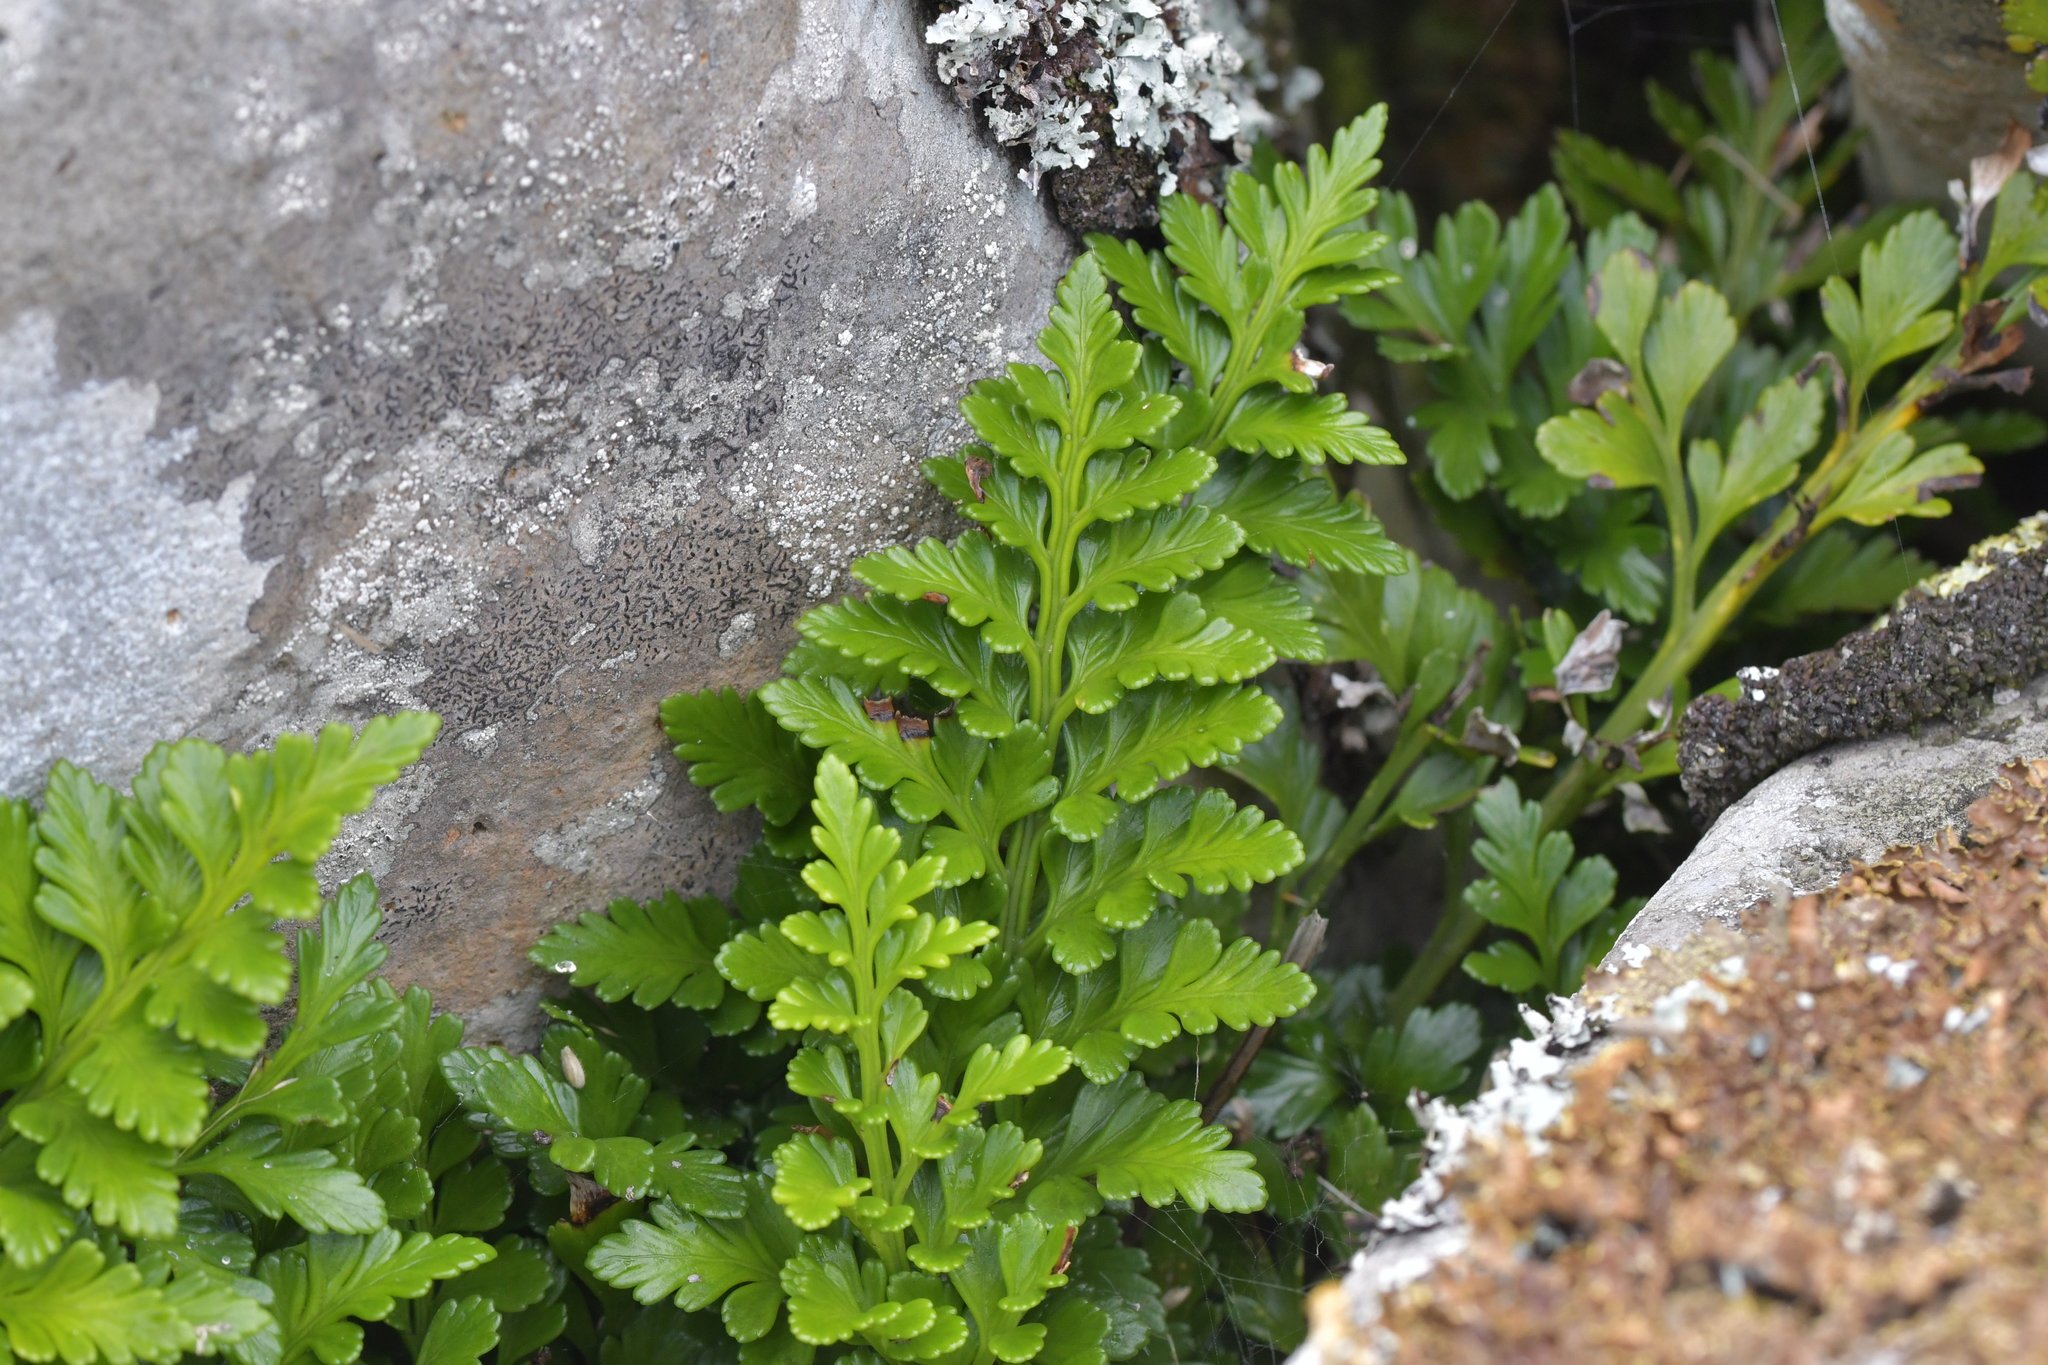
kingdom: Plantae
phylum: Tracheophyta
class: Polypodiopsida
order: Polypodiales
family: Aspleniaceae
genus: Asplenium
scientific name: Asplenium chathamense
